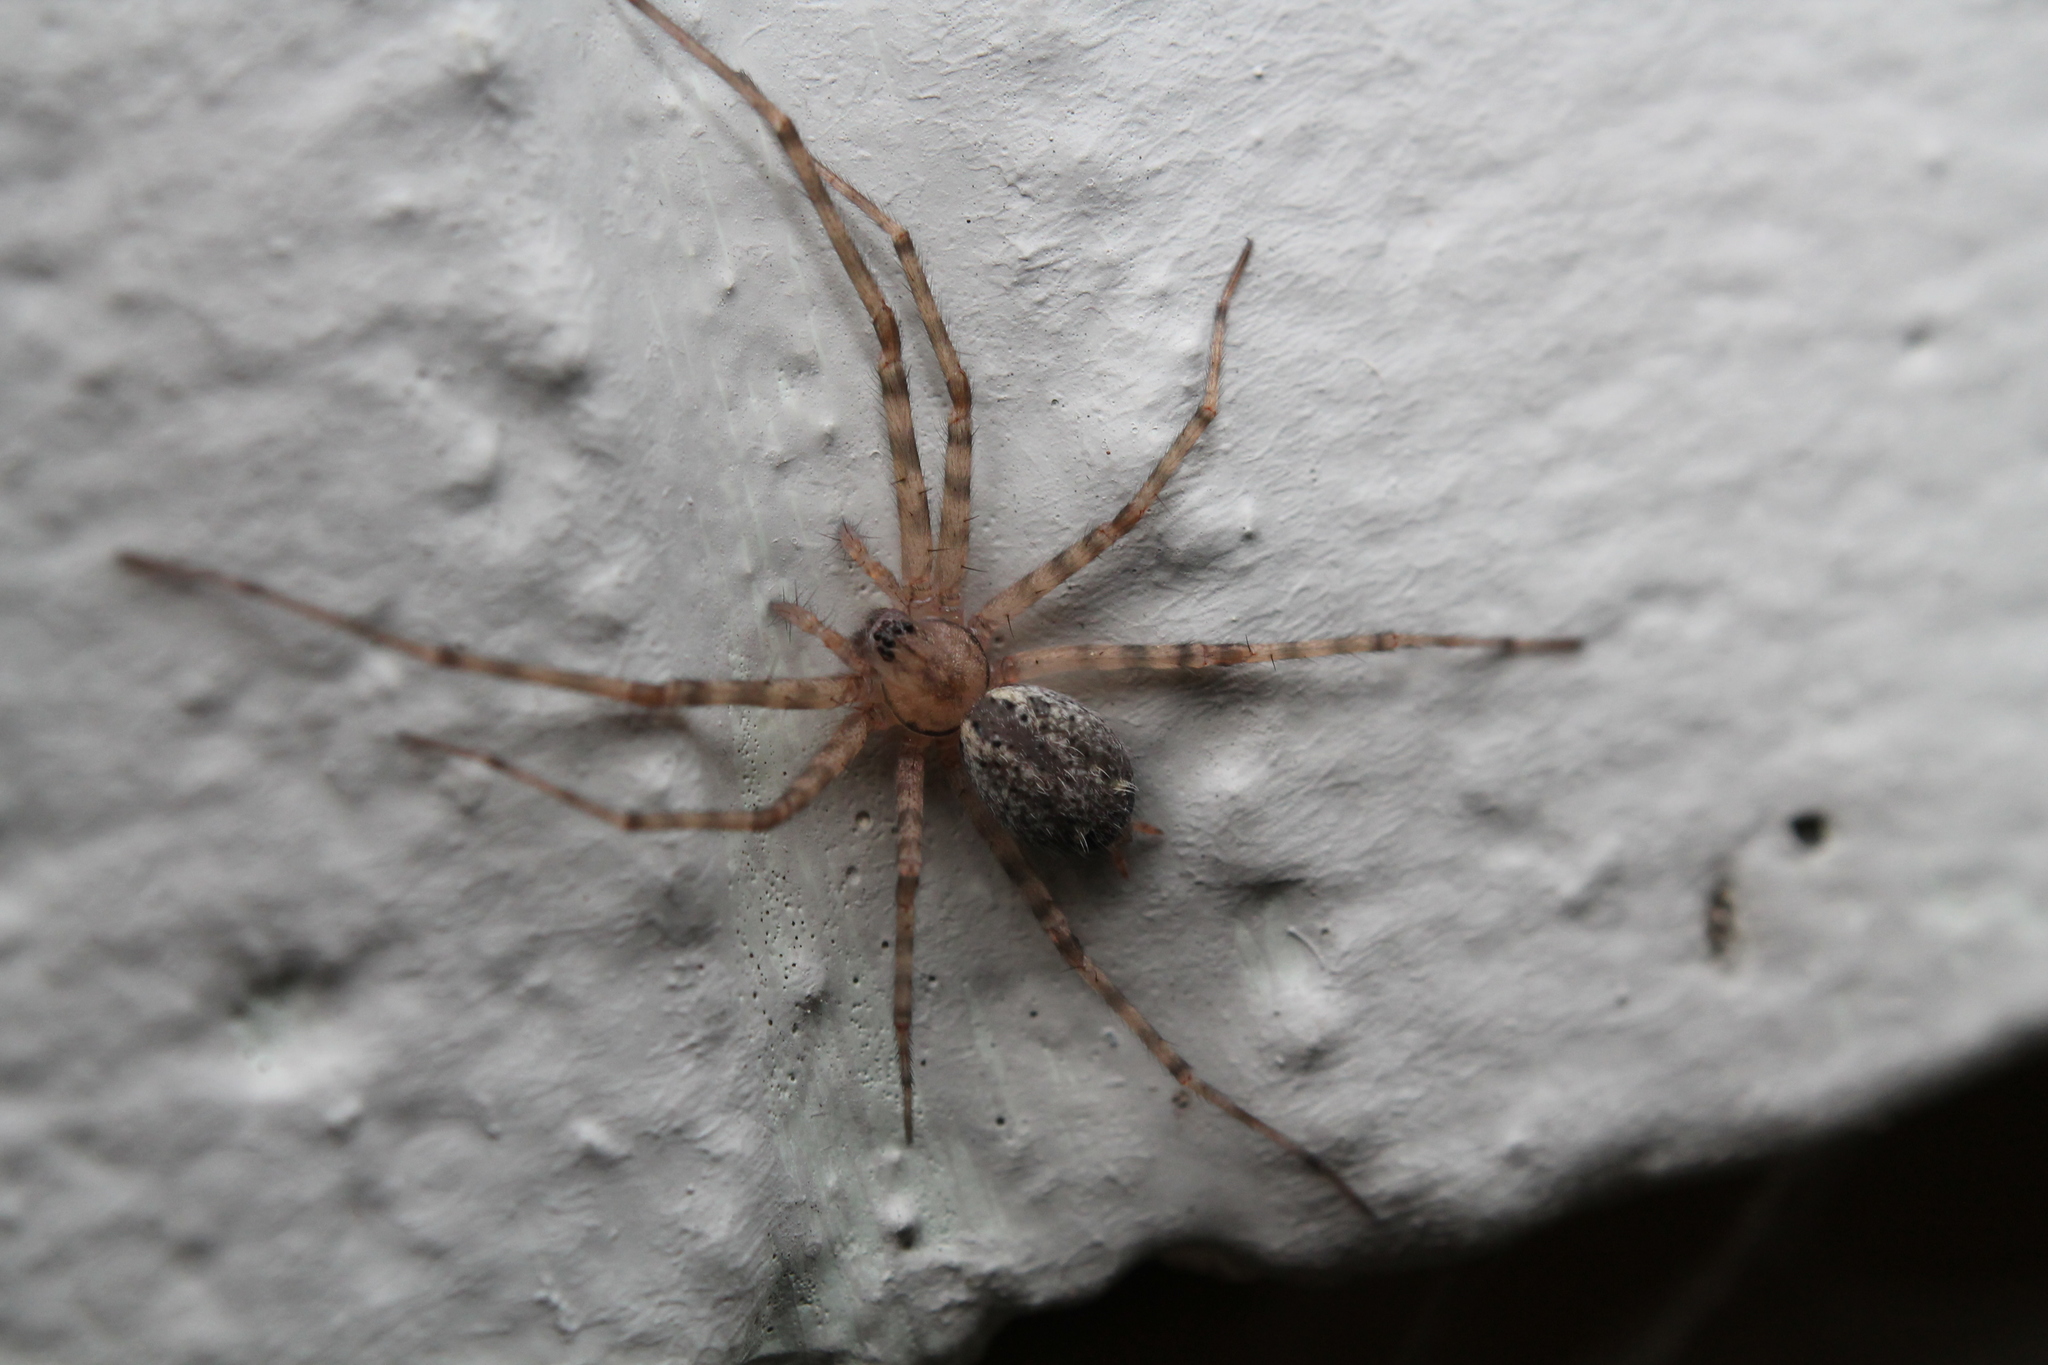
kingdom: Animalia
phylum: Arthropoda
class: Arachnida
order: Araneae
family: Stiphidiidae
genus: Stiphidion
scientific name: Stiphidion facetum
